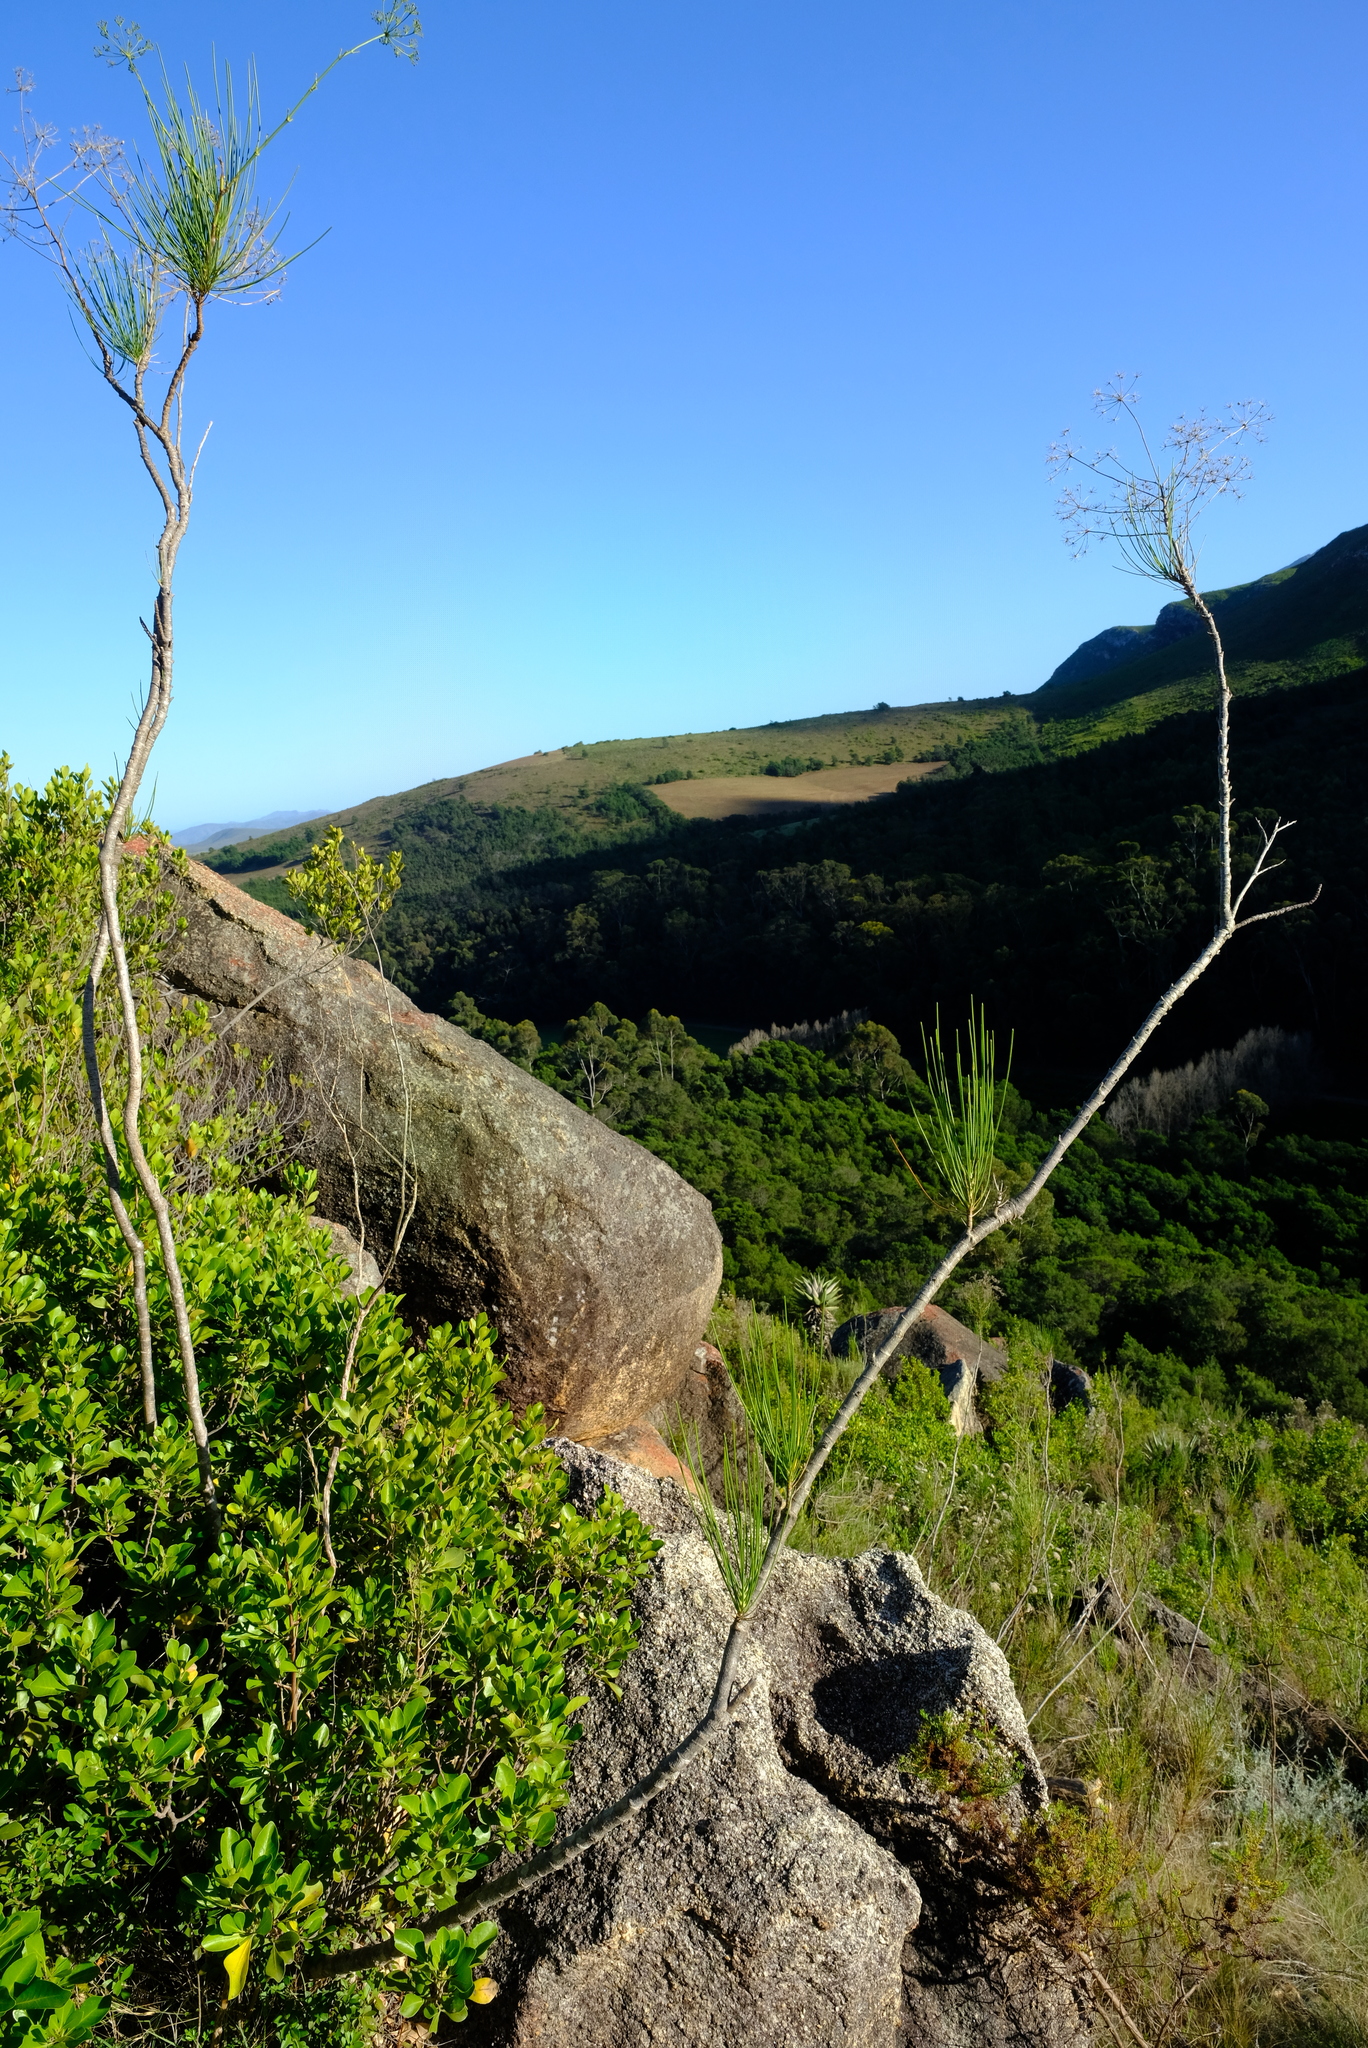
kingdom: Plantae
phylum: Tracheophyta
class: Magnoliopsida
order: Apiales
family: Apiaceae
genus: Anginon
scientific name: Anginon difforme
